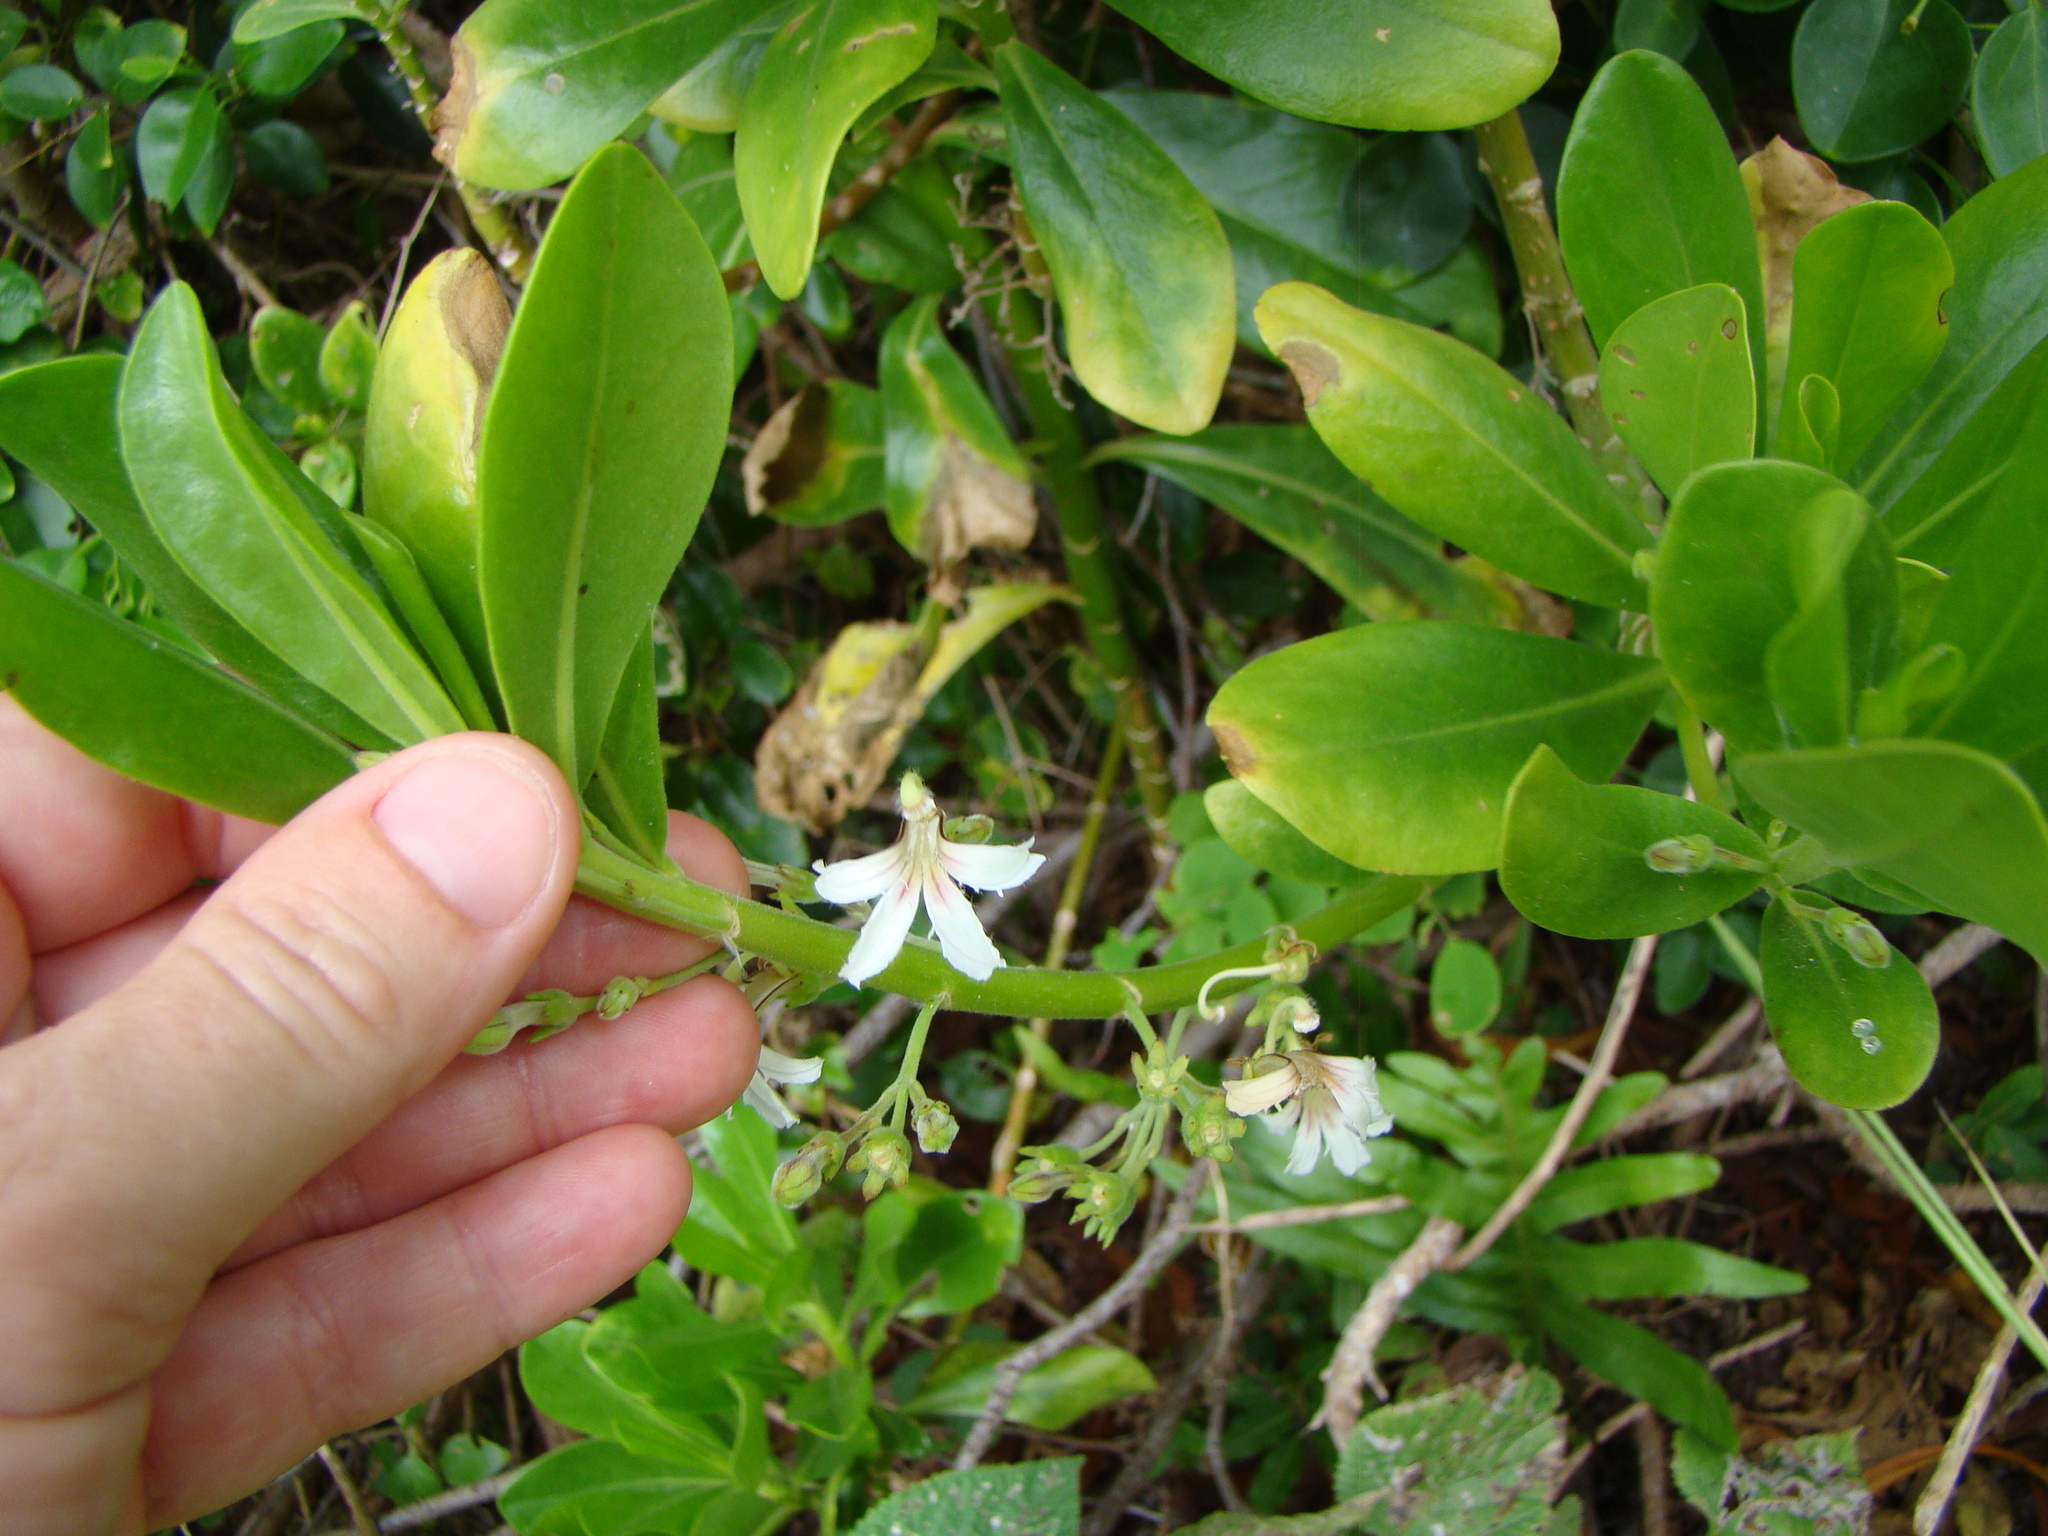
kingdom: Plantae
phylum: Tracheophyta
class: Magnoliopsida
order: Asterales
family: Goodeniaceae
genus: Scaevola
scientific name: Scaevola taccada
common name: Sea lettucetree
